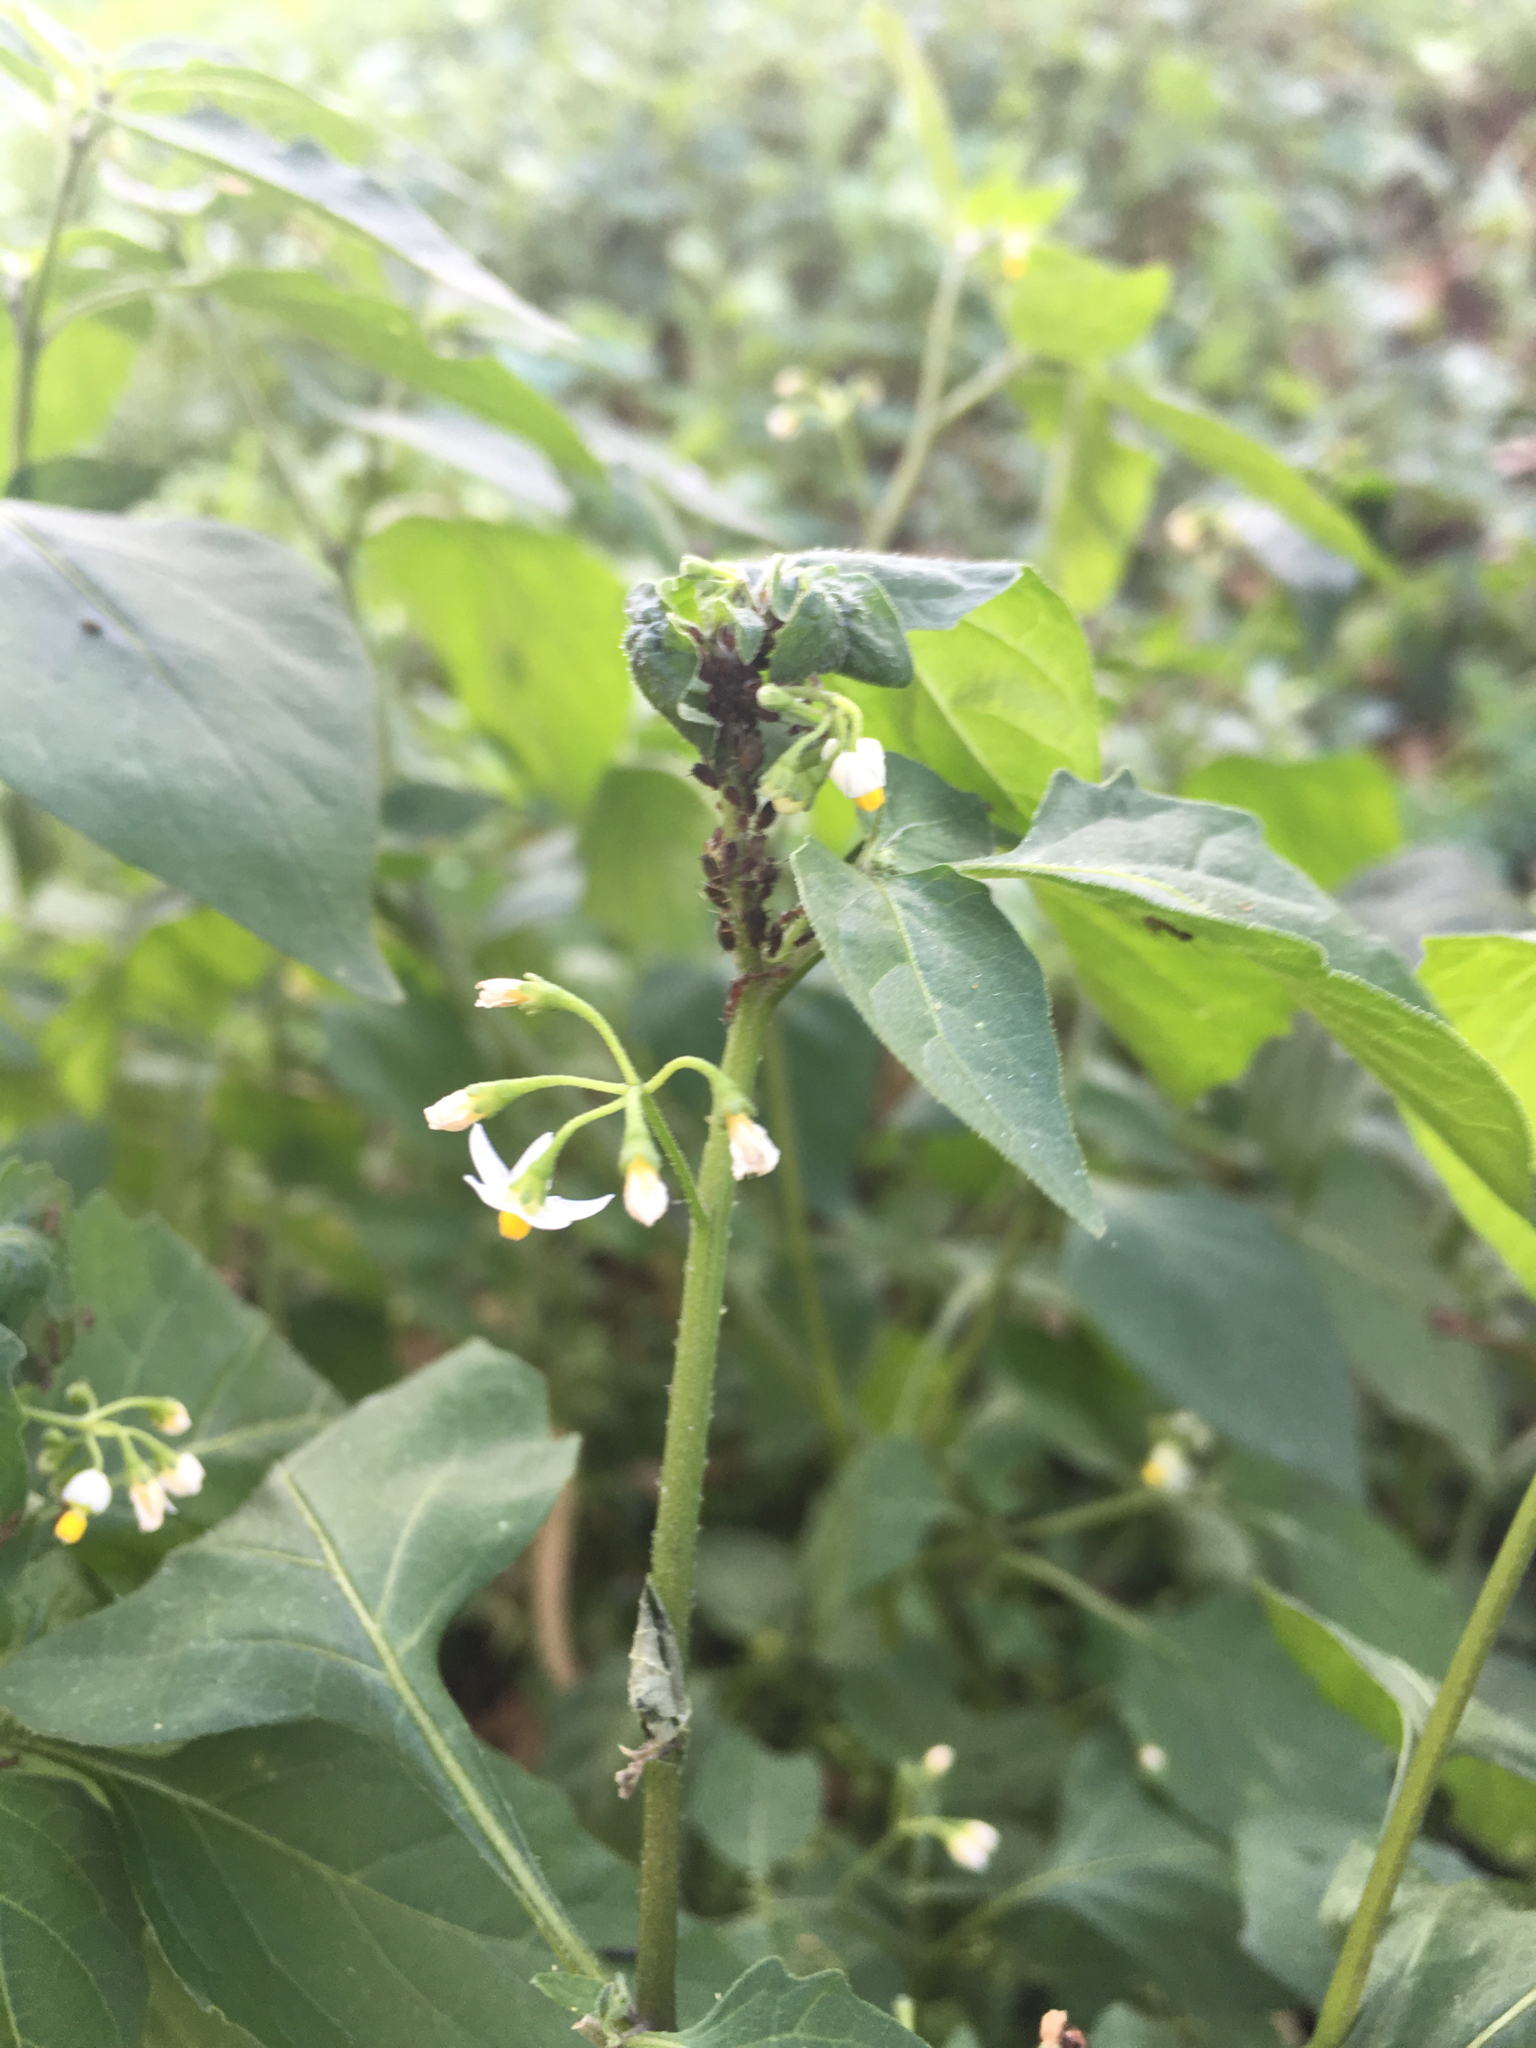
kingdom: Plantae
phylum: Tracheophyta
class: Magnoliopsida
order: Solanales
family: Solanaceae
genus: Solanum
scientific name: Solanum americanum
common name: American black nightshade
